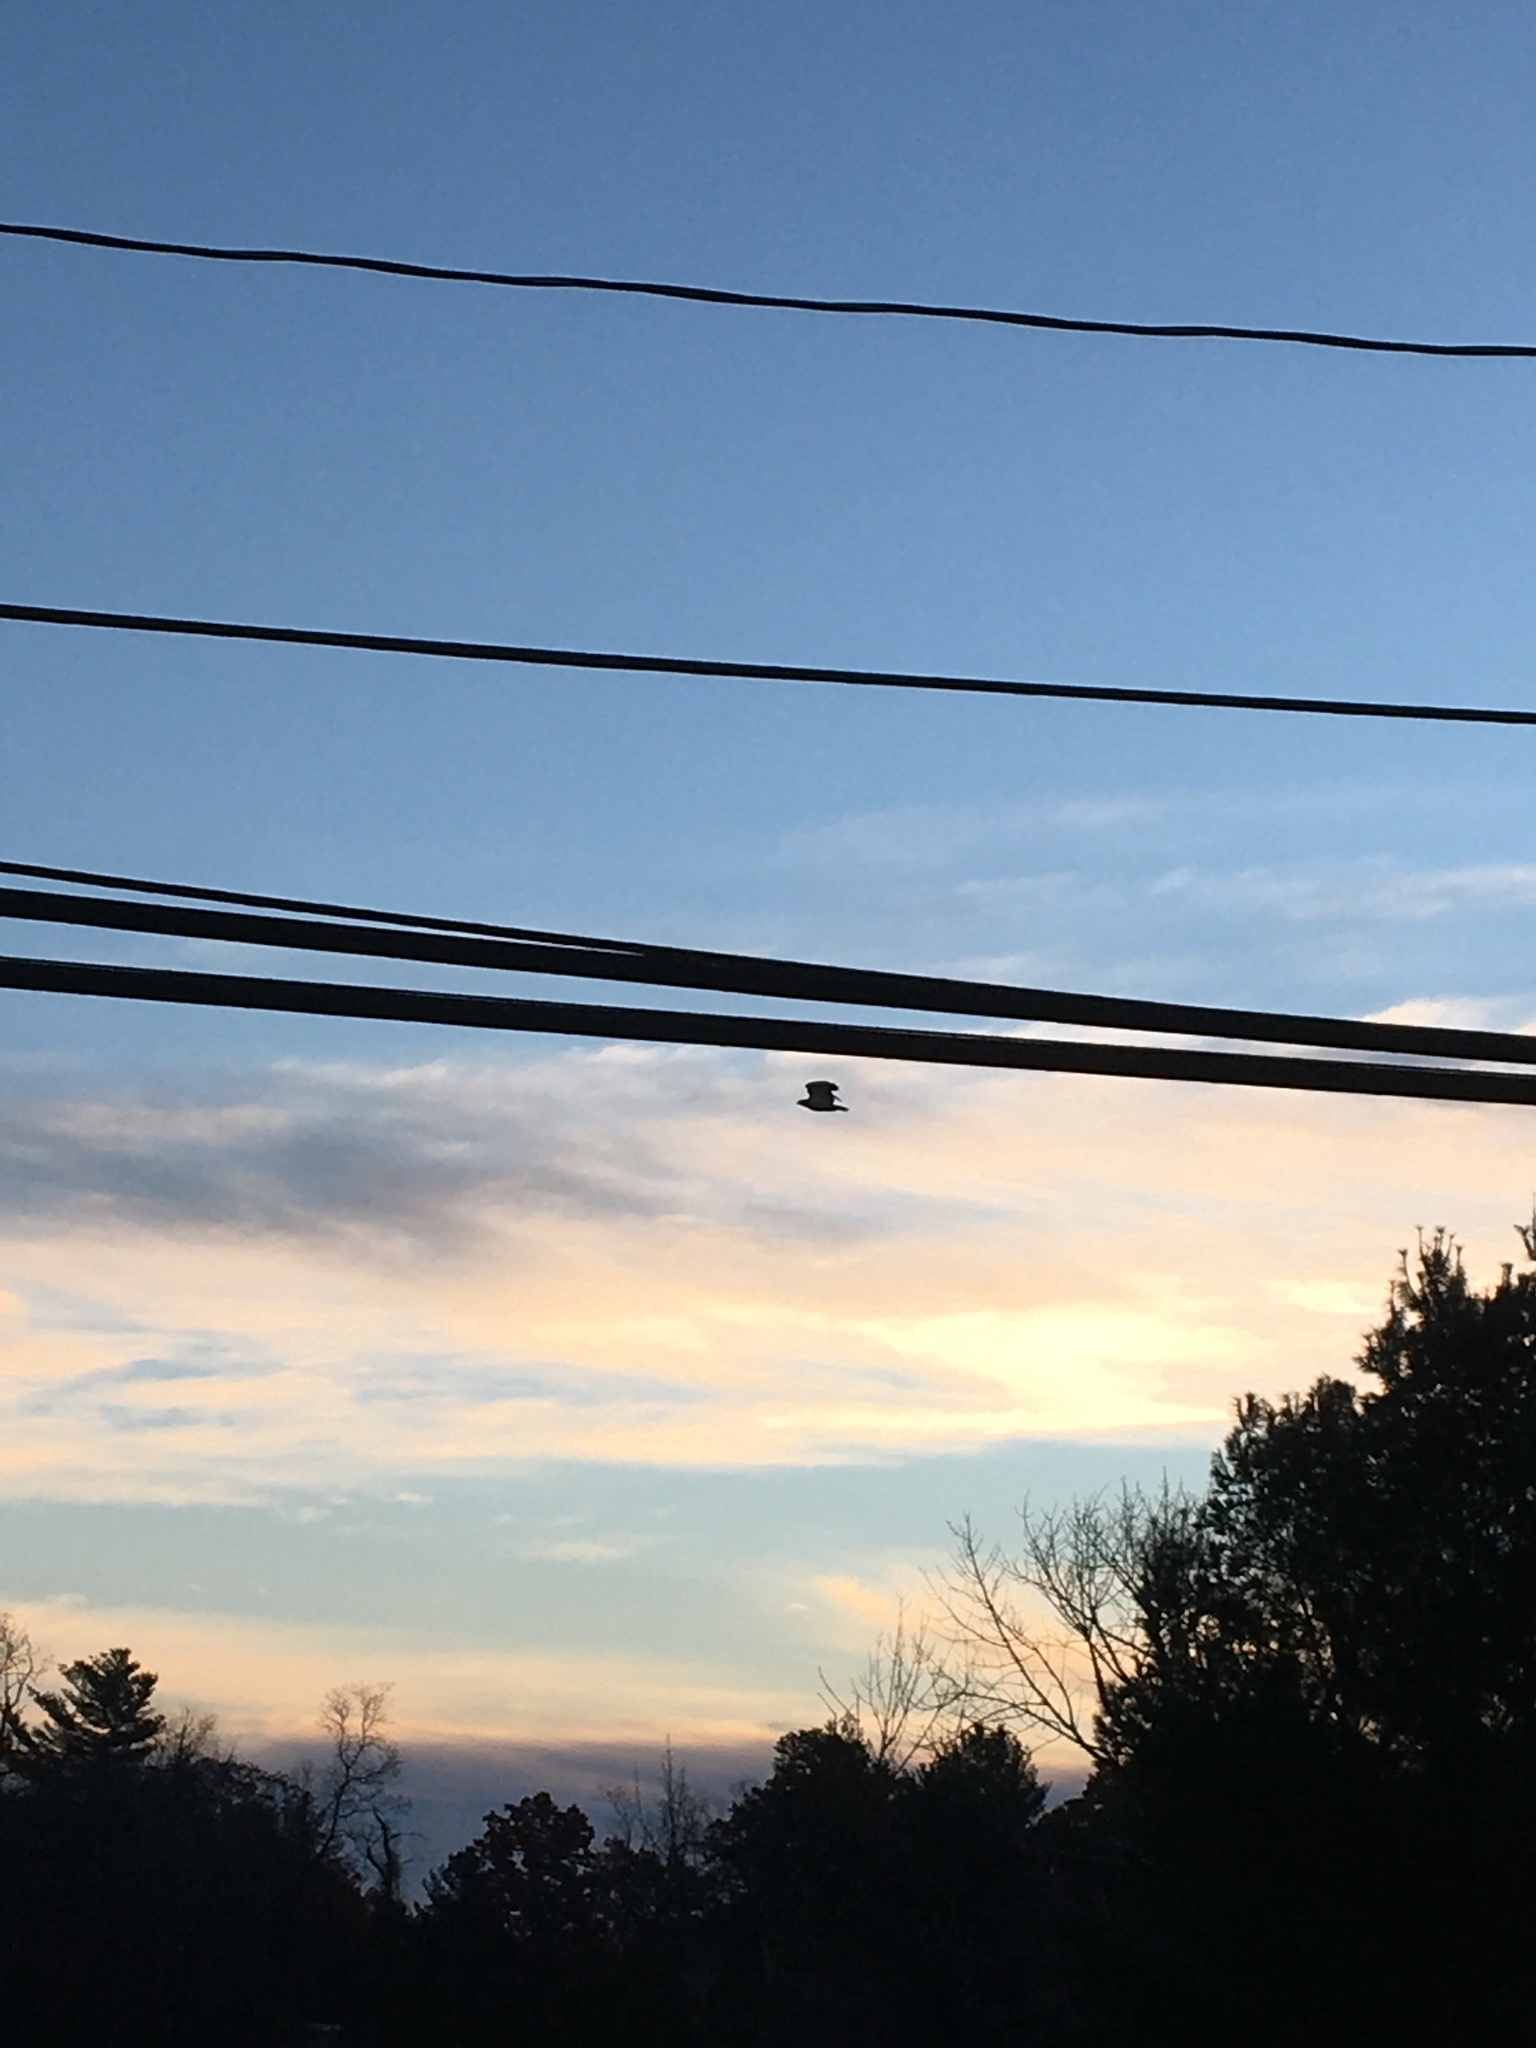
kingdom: Animalia
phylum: Chordata
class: Aves
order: Accipitriformes
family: Accipitridae
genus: Buteo
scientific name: Buteo jamaicensis
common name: Red-tailed hawk
